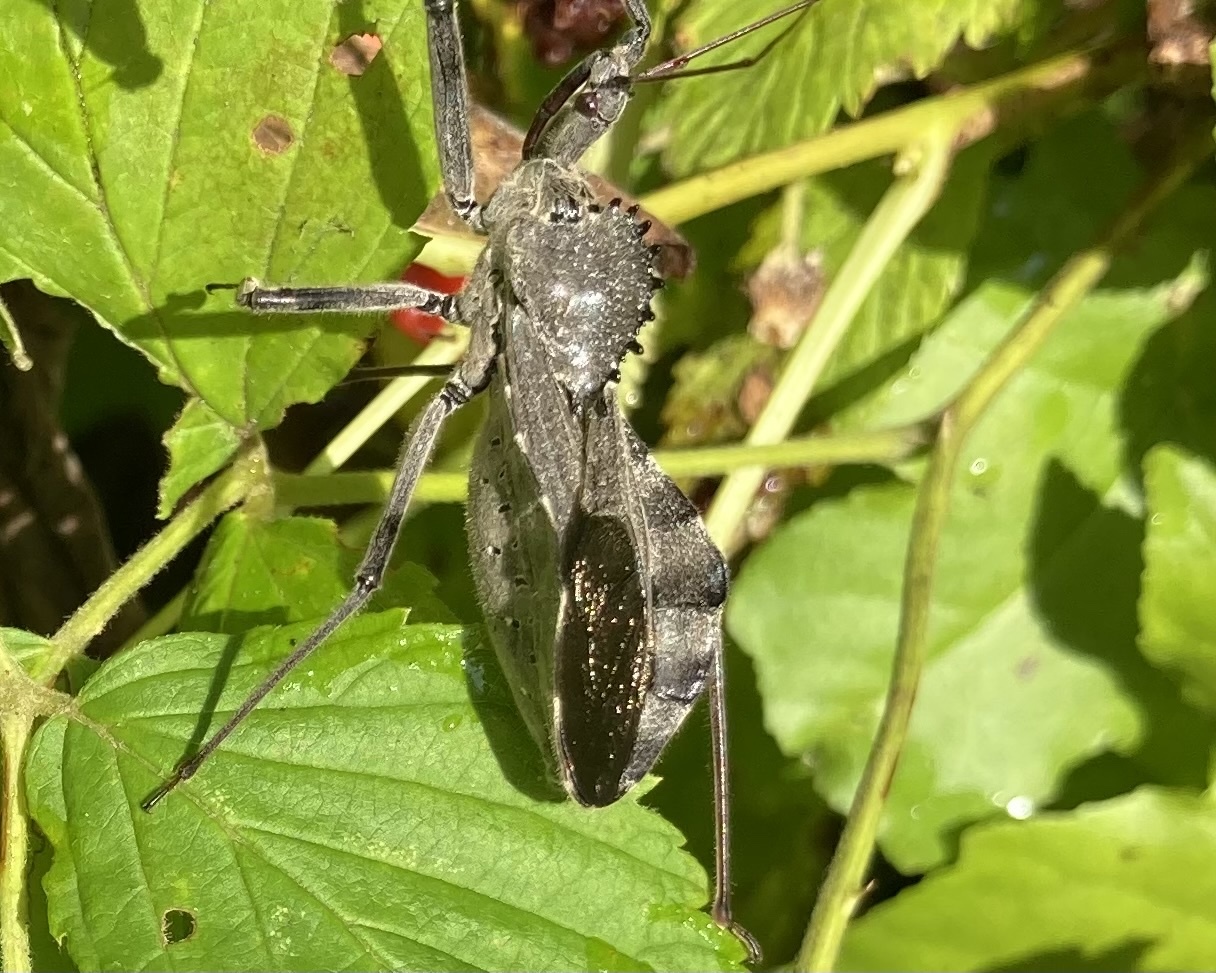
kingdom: Animalia
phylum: Arthropoda
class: Insecta
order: Hemiptera
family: Reduviidae
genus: Arilus
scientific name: Arilus cristatus
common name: North american wheel bug
